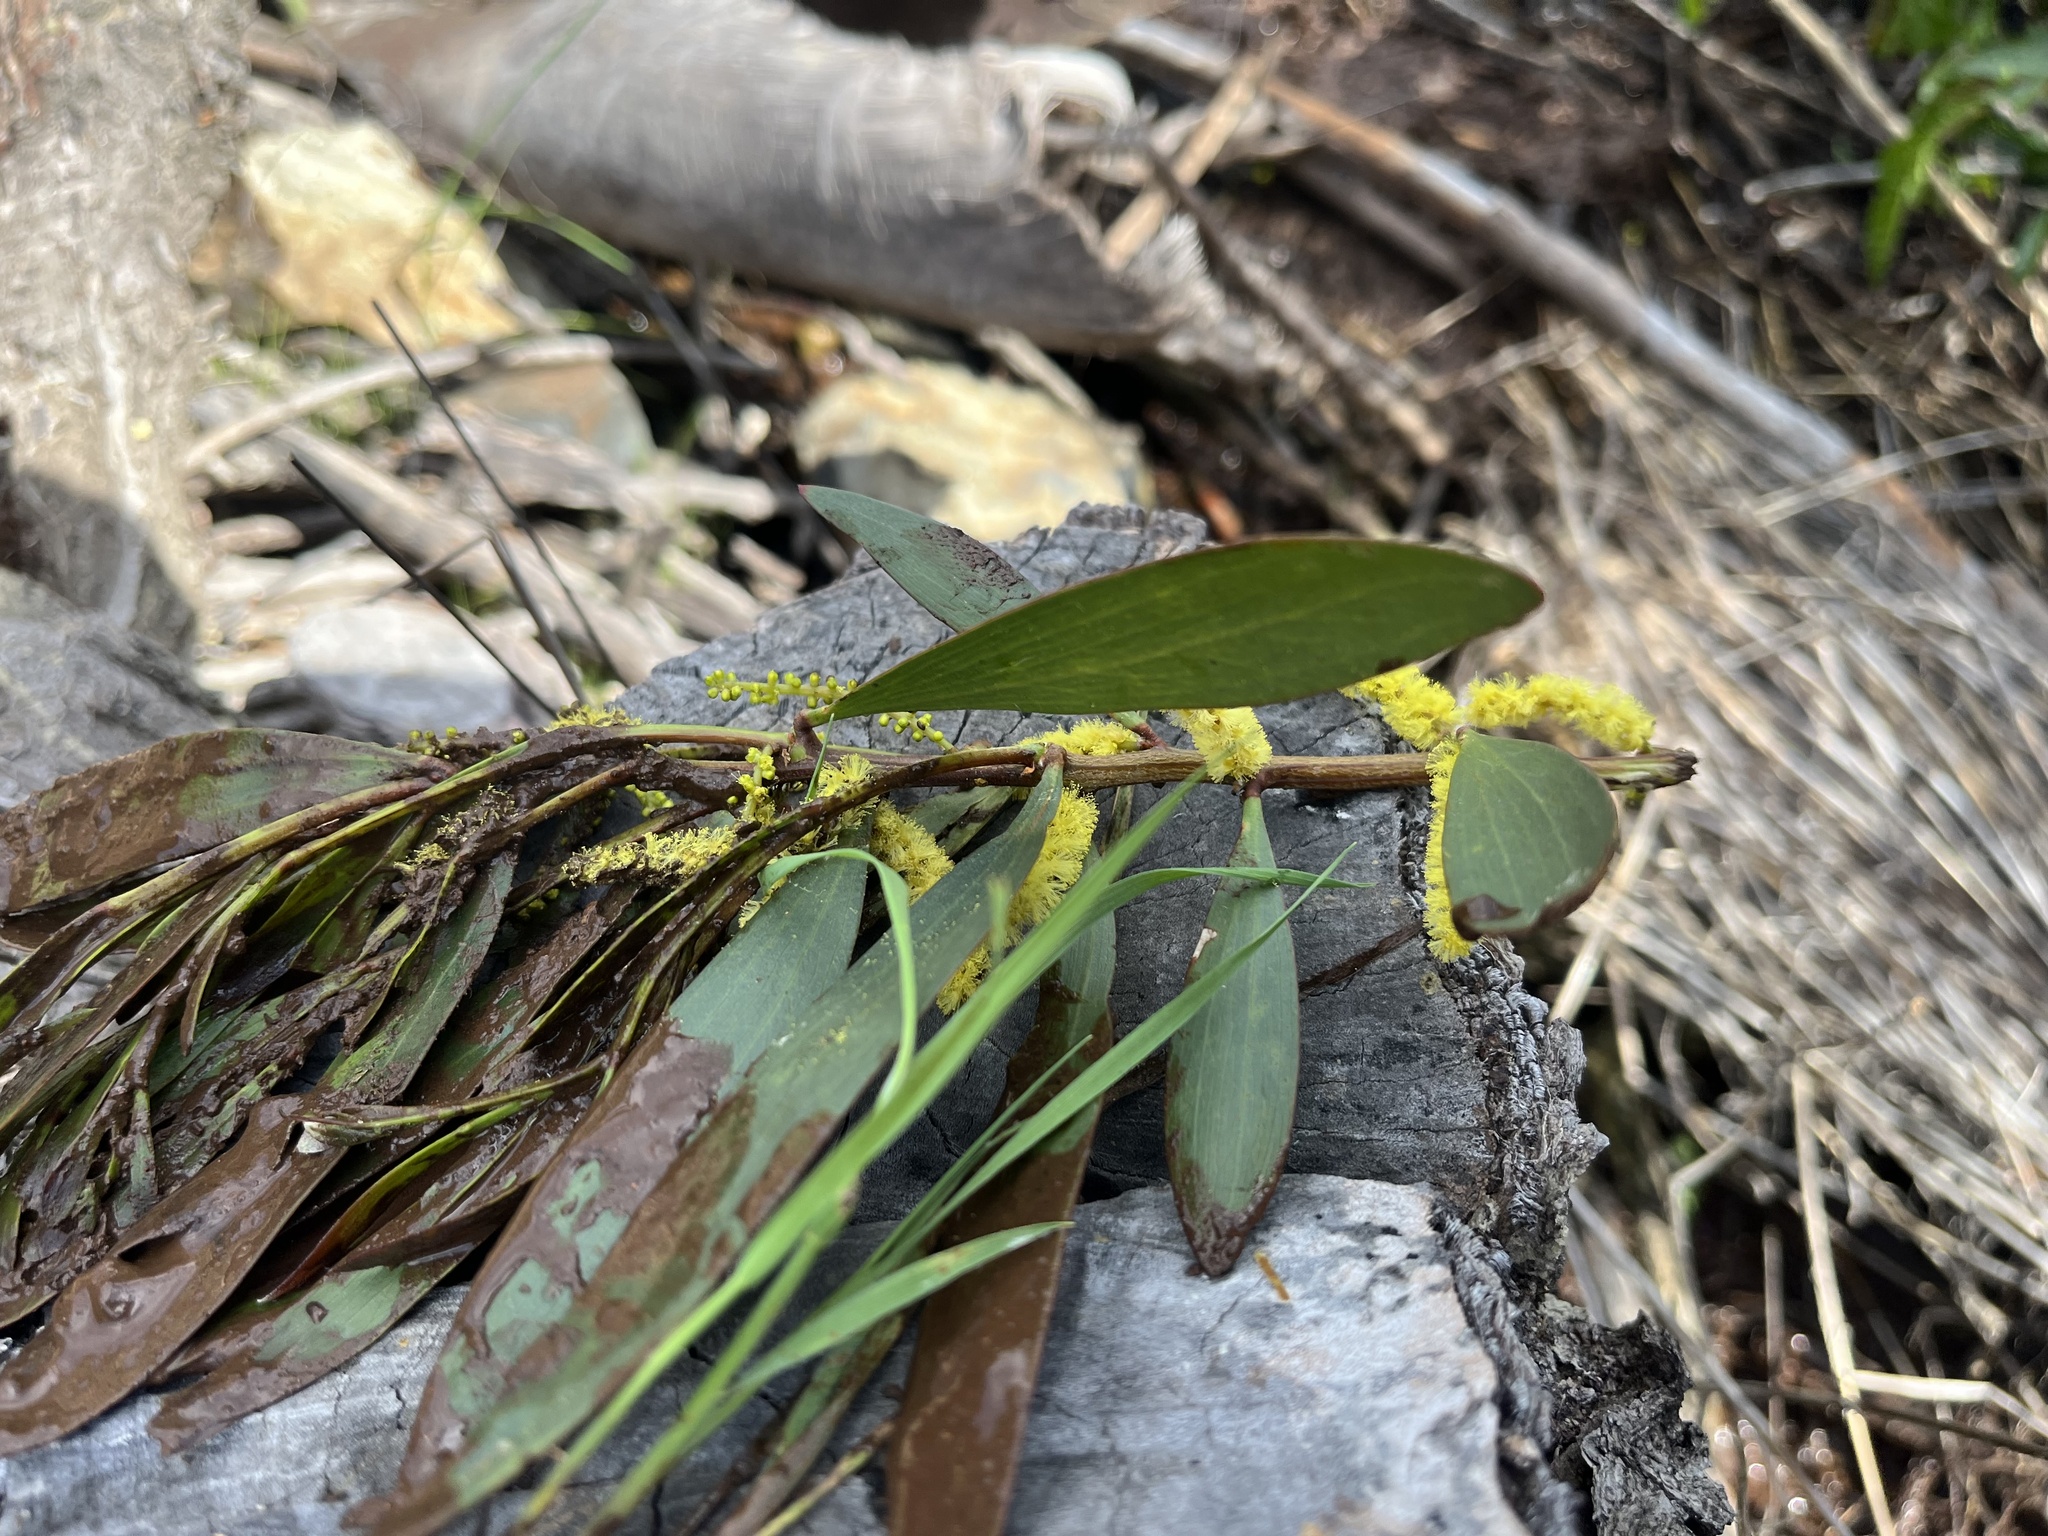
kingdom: Plantae
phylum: Tracheophyta
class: Magnoliopsida
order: Fabales
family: Fabaceae
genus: Acacia
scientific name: Acacia longifolia
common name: Sydney golden wattle
